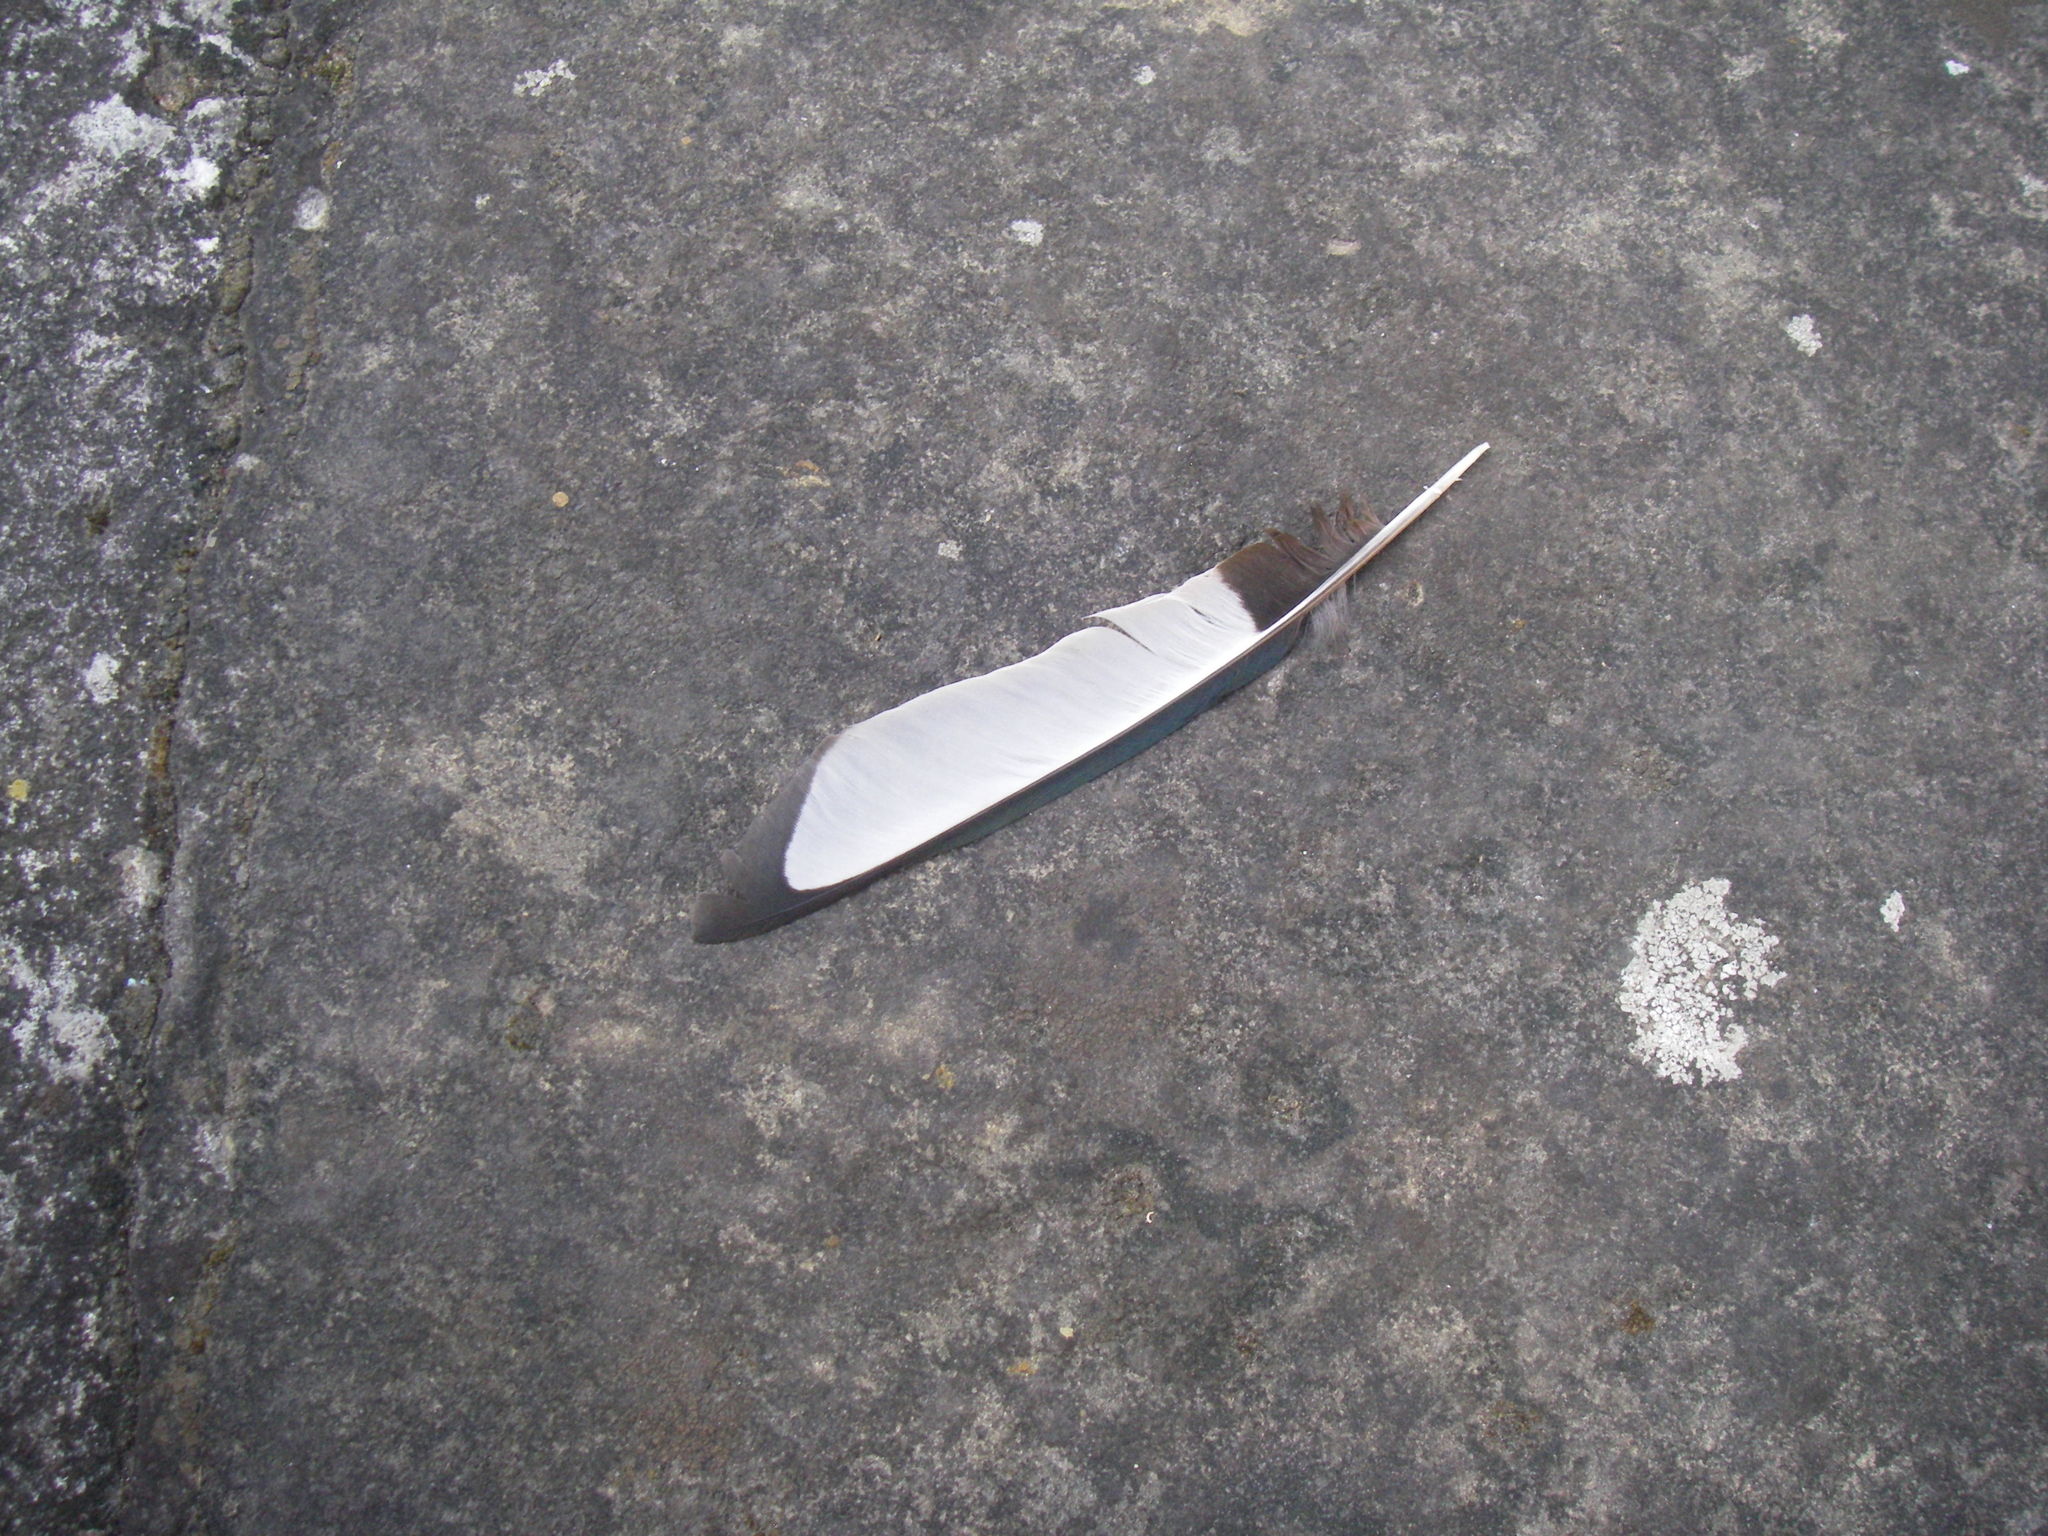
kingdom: Animalia
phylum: Chordata
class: Aves
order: Passeriformes
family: Corvidae
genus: Pica
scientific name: Pica pica
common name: Eurasian magpie
